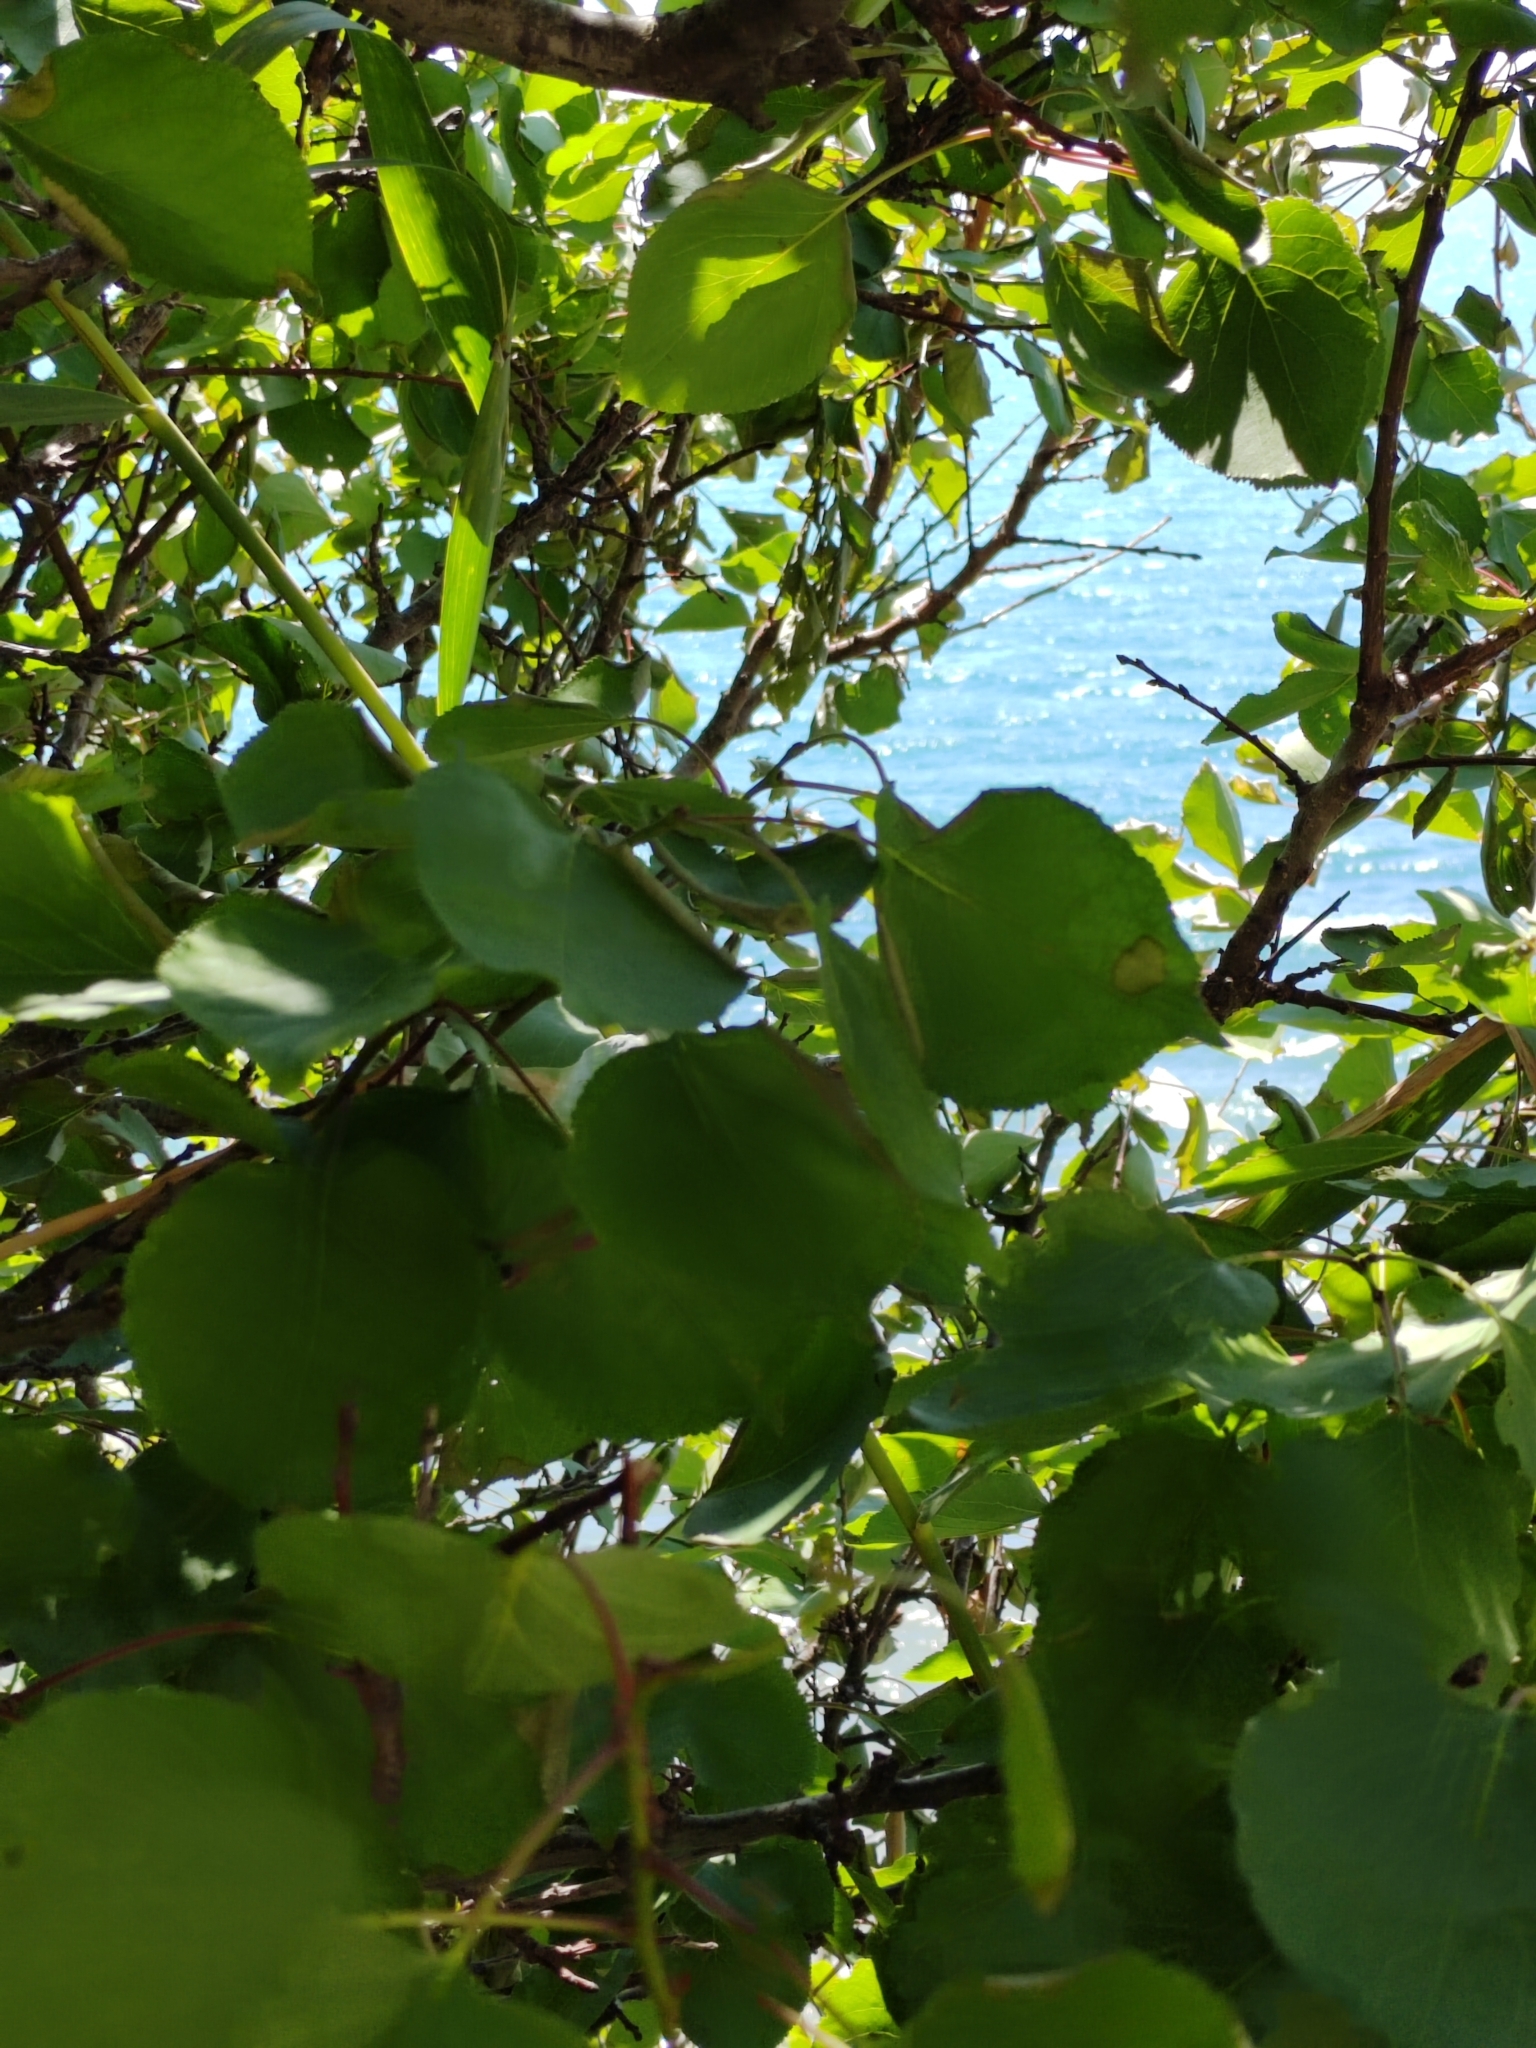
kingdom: Plantae
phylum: Tracheophyta
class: Magnoliopsida
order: Rosales
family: Rosaceae
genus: Prunus
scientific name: Prunus armeniaca
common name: Apricot
